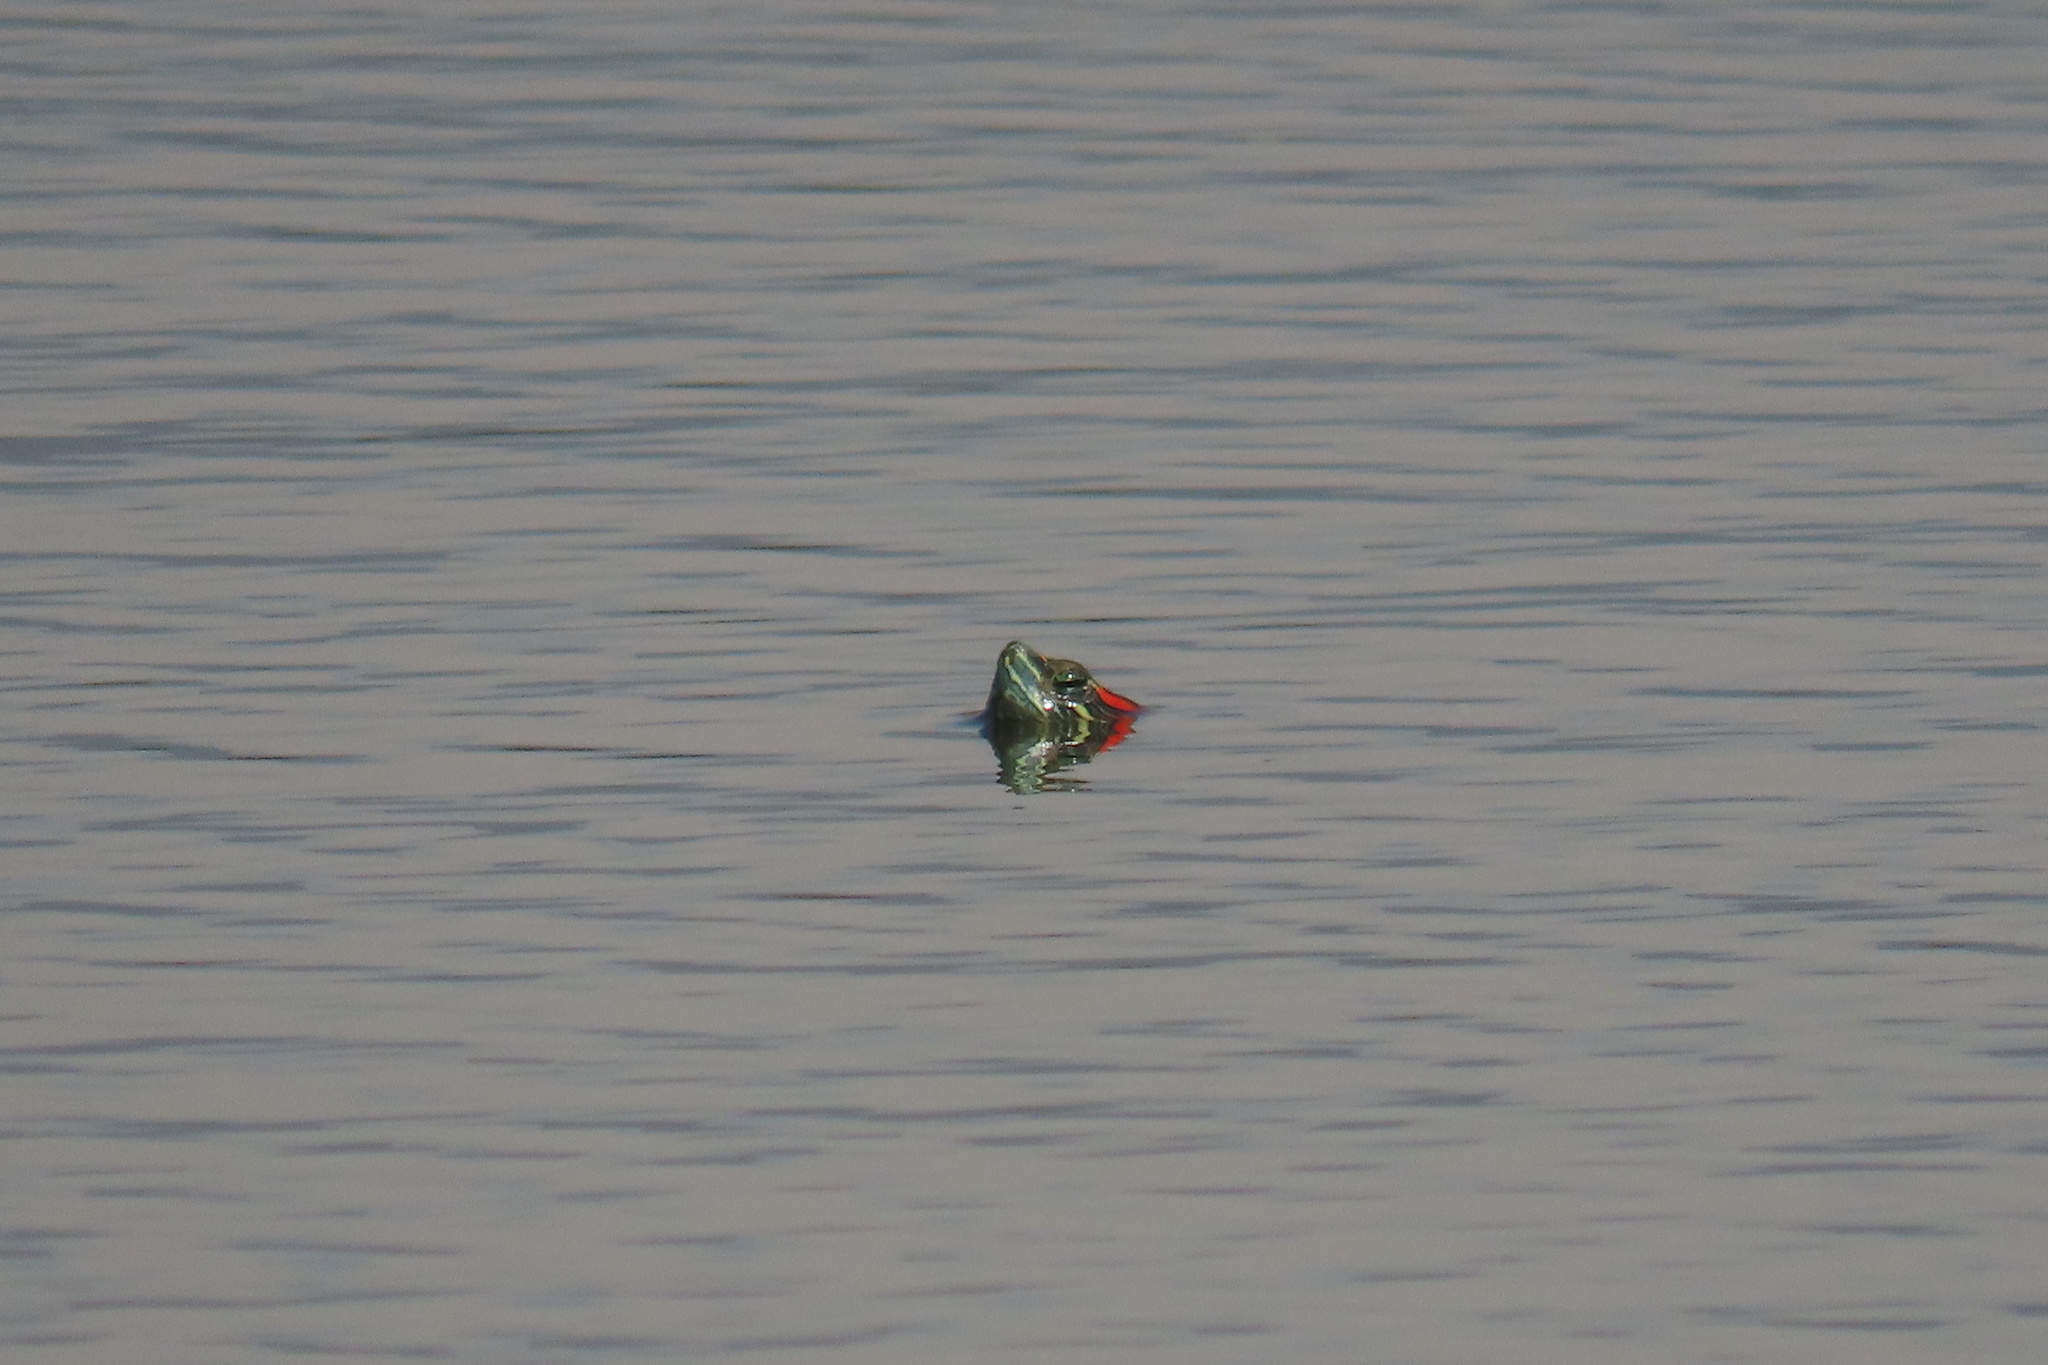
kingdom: Animalia
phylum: Chordata
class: Testudines
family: Emydidae
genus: Trachemys
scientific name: Trachemys scripta
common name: Slider
